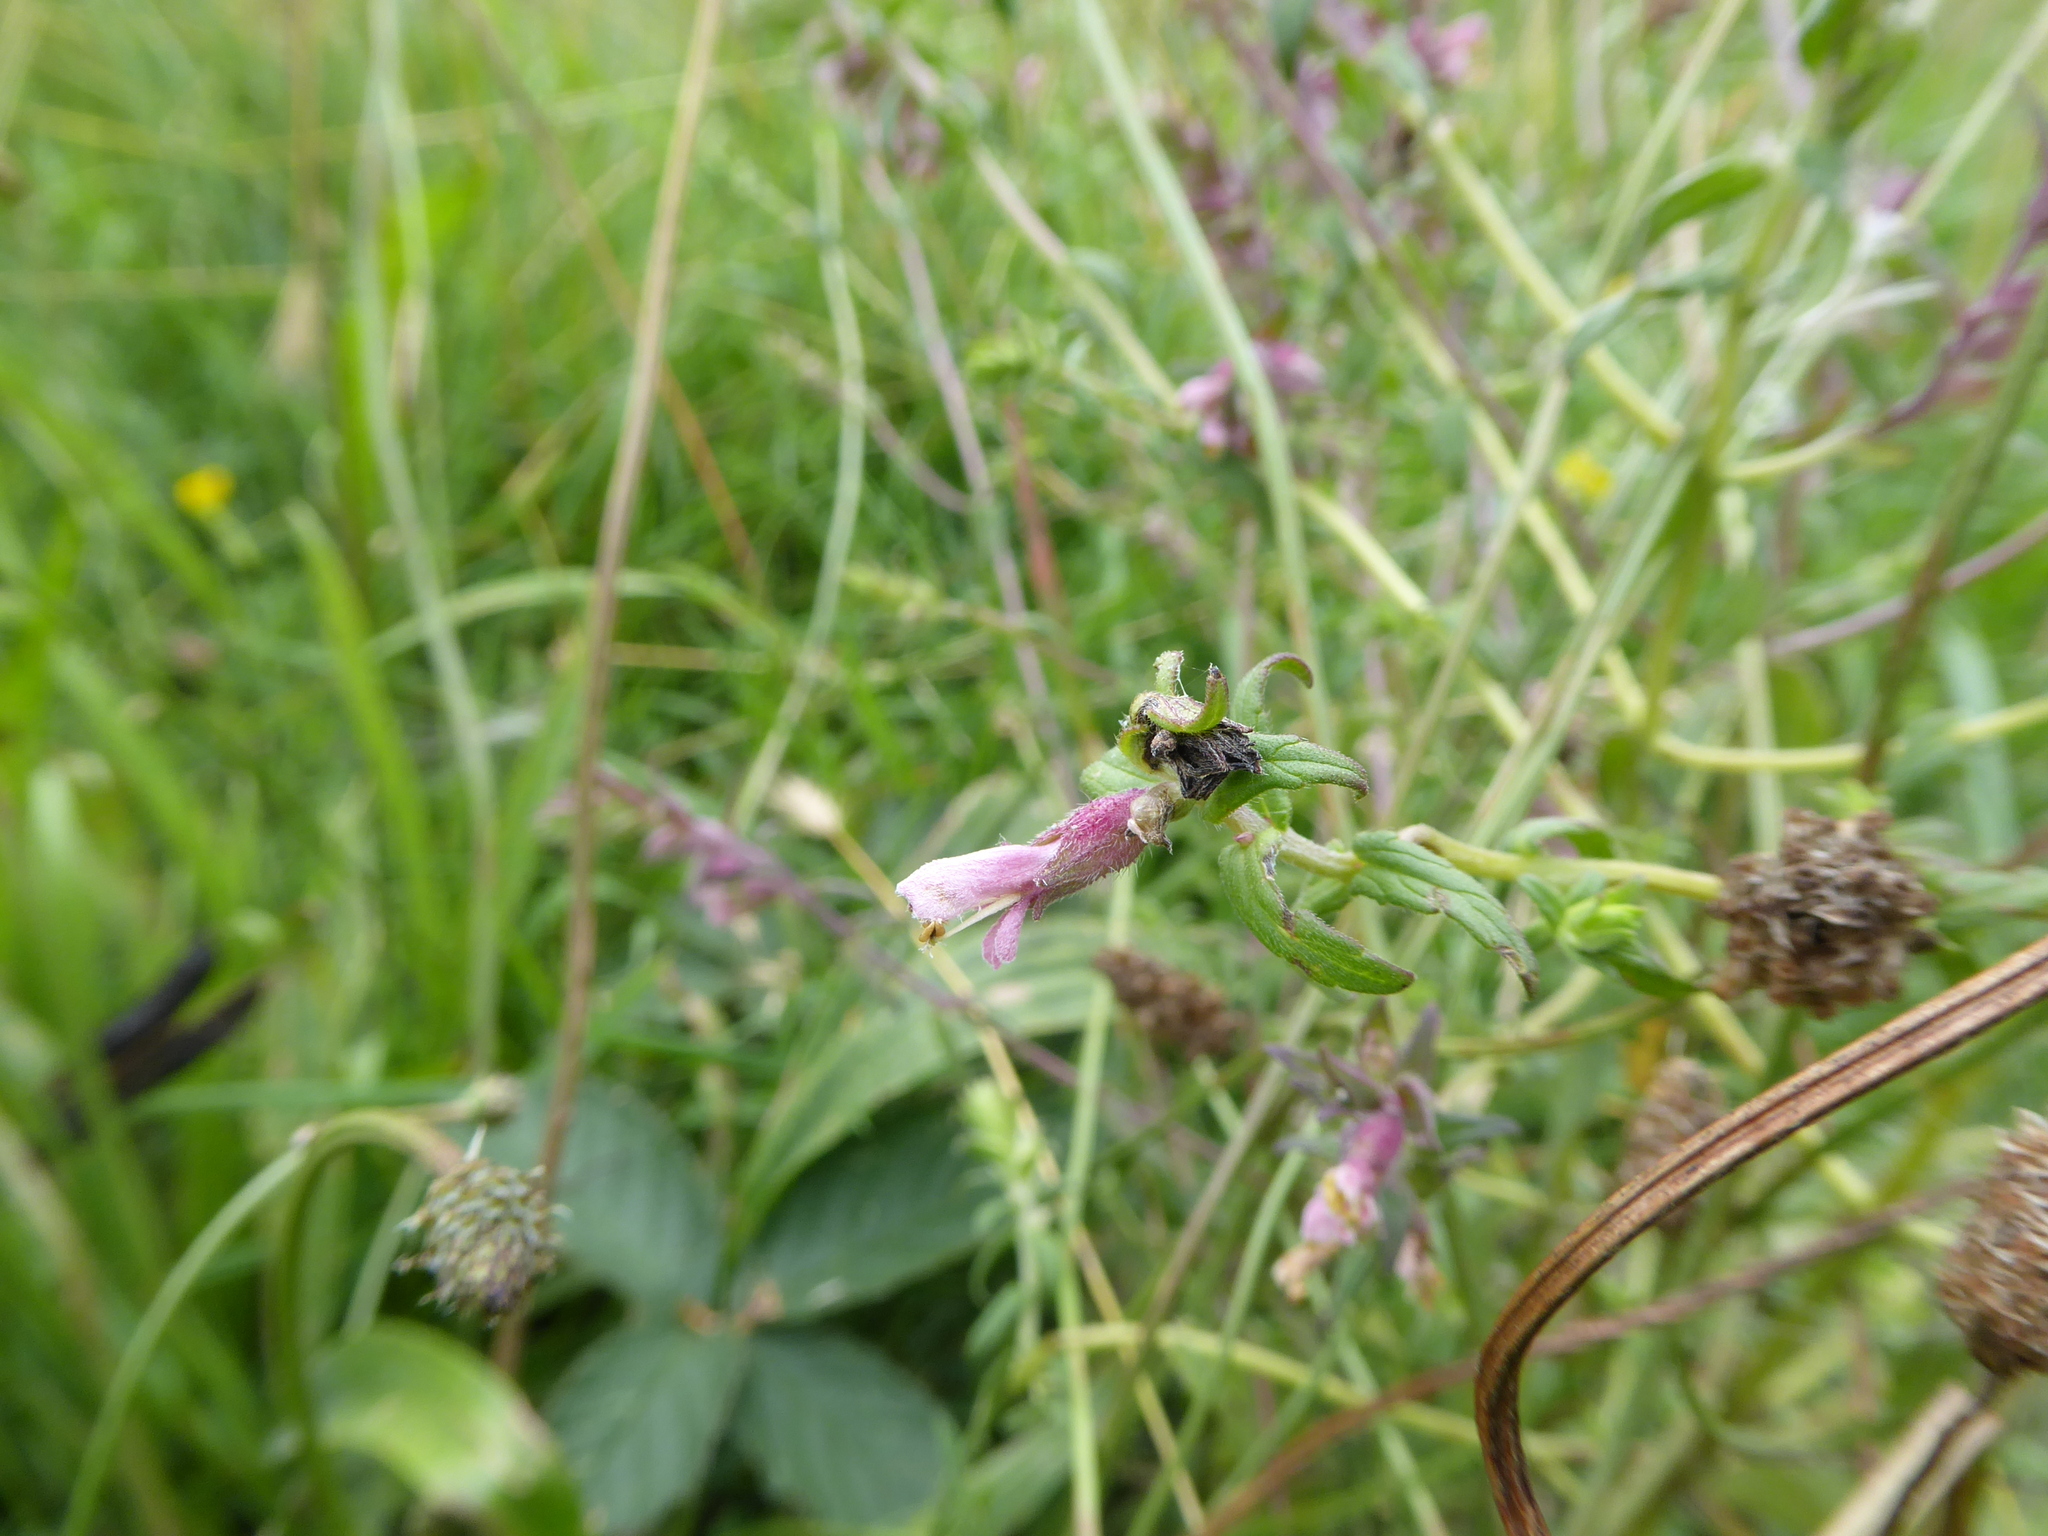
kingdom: Plantae
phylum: Tracheophyta
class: Magnoliopsida
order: Lamiales
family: Orobanchaceae
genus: Odontites
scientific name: Odontites vulgaris
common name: Broomrape
